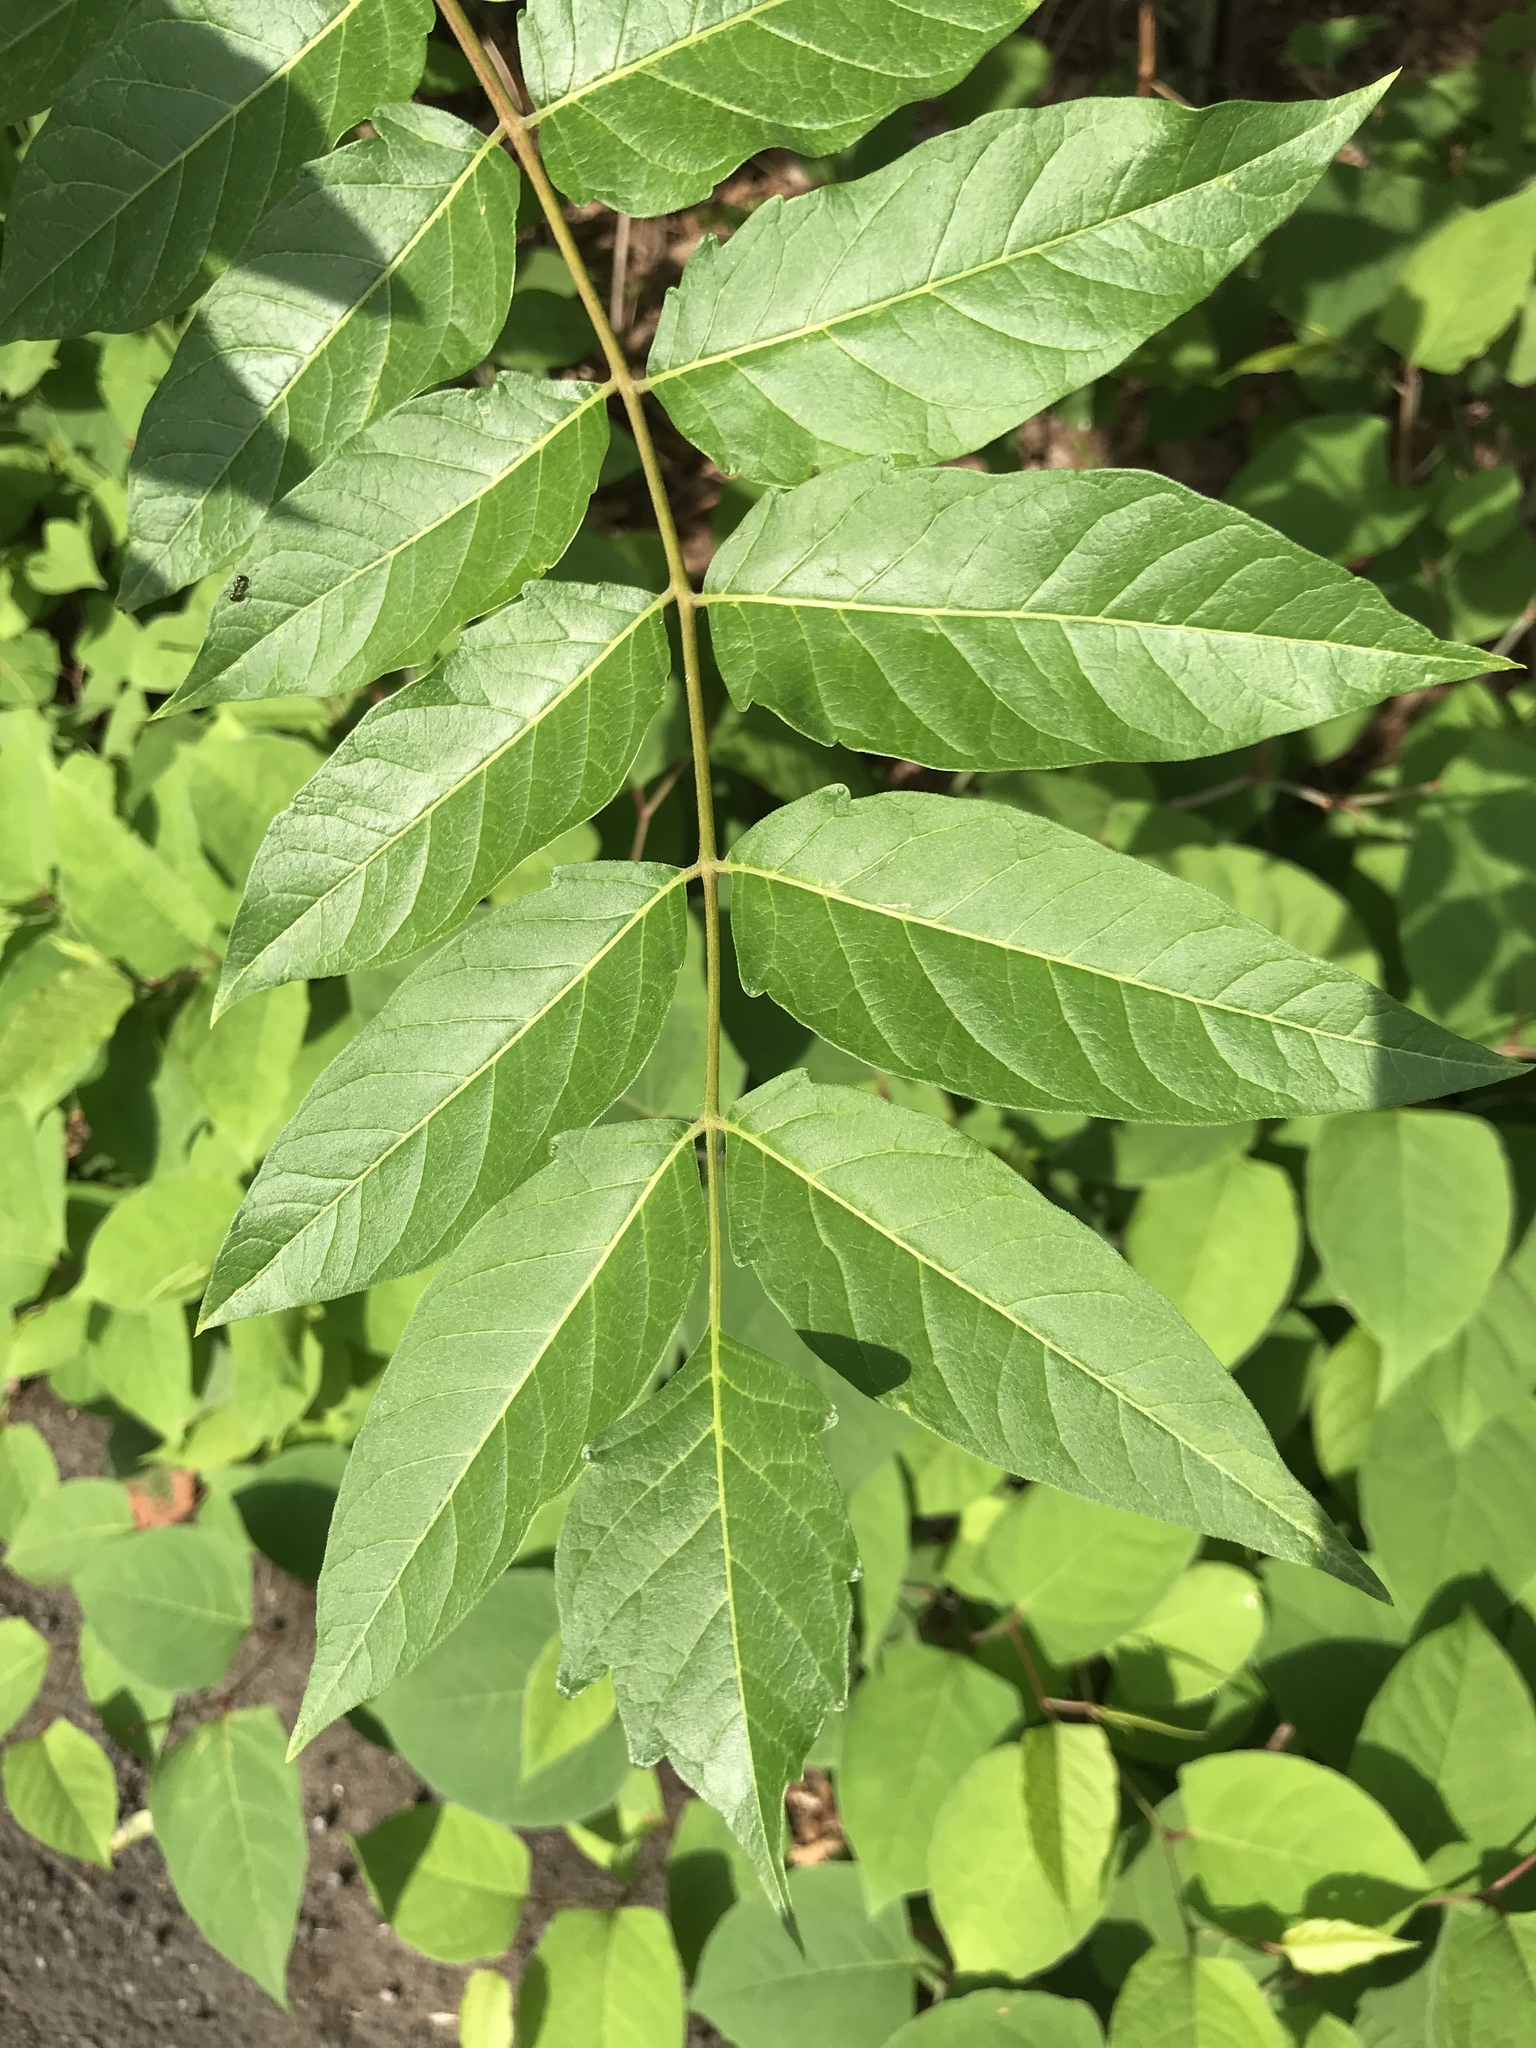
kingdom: Plantae
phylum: Tracheophyta
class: Magnoliopsida
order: Sapindales
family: Simaroubaceae
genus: Ailanthus
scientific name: Ailanthus altissima
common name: Tree-of-heaven
